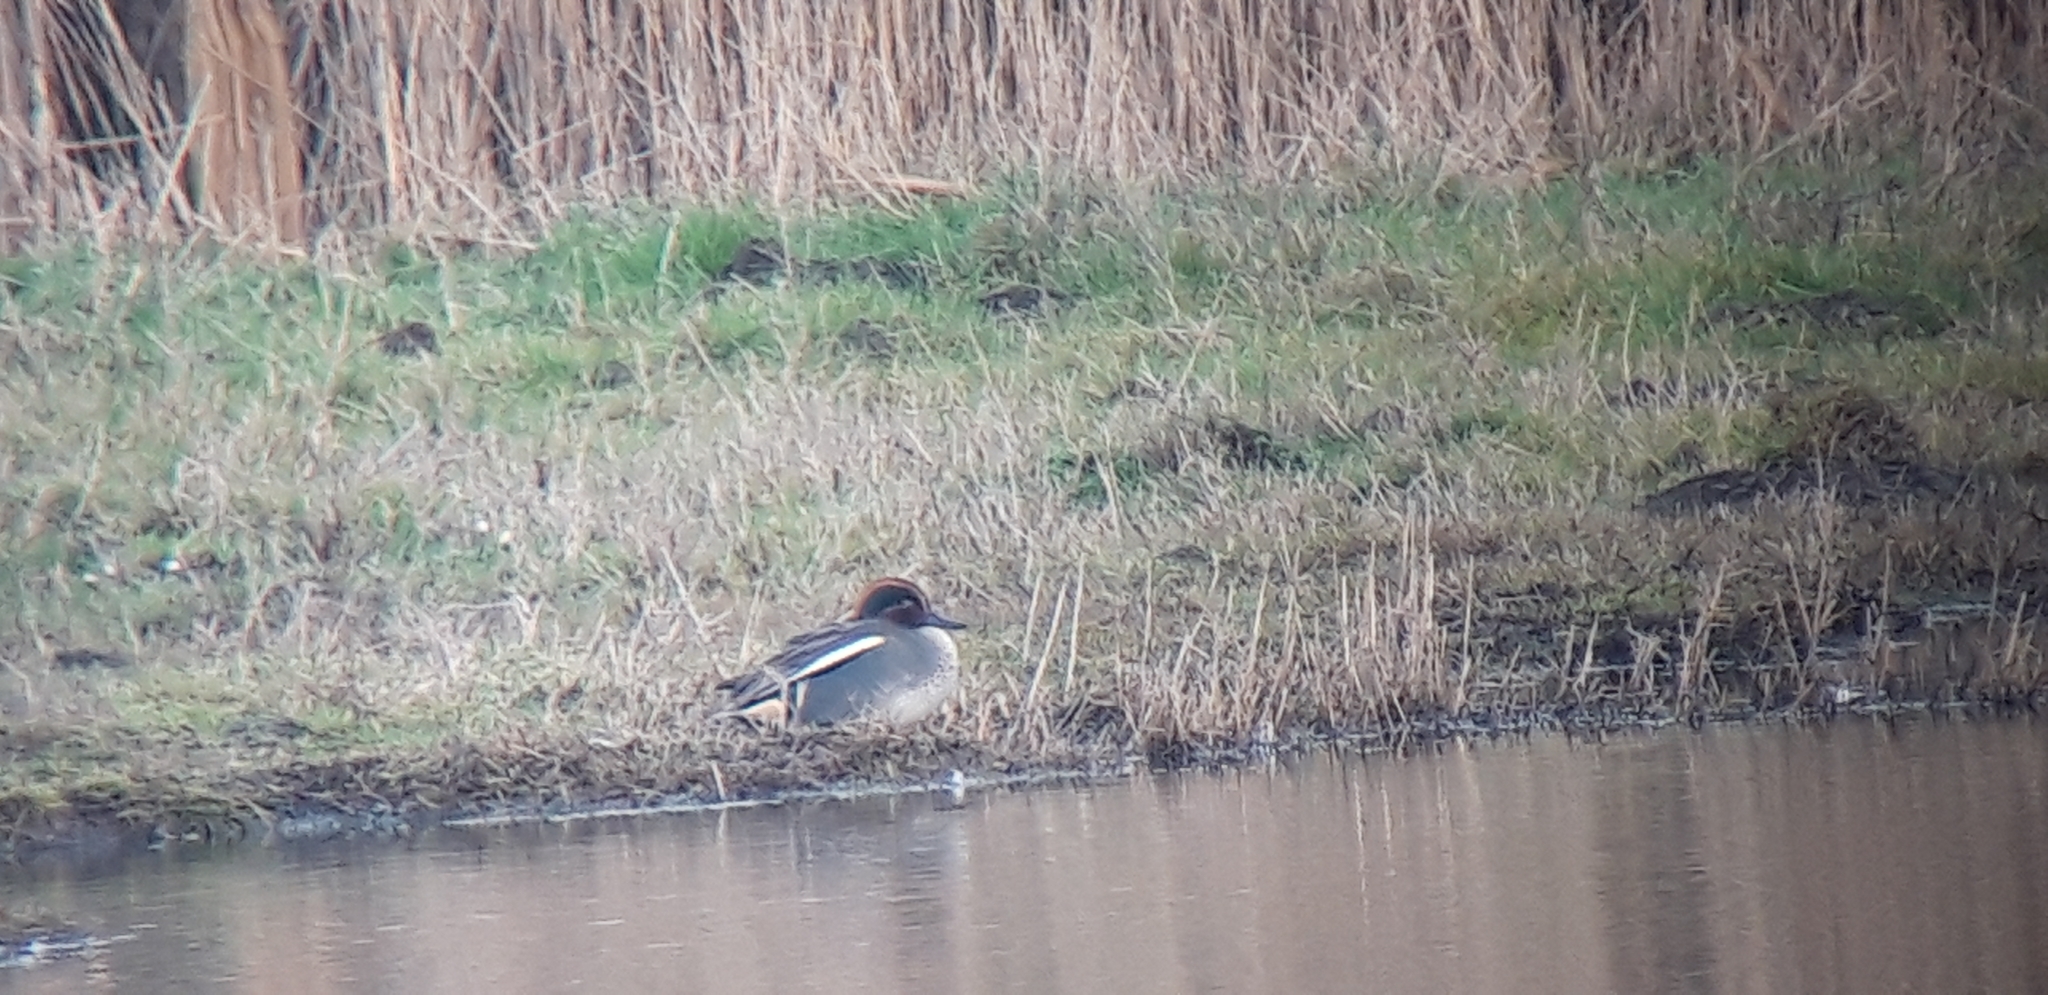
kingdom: Animalia
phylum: Chordata
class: Aves
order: Anseriformes
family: Anatidae
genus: Anas
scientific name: Anas crecca
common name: Eurasian teal
